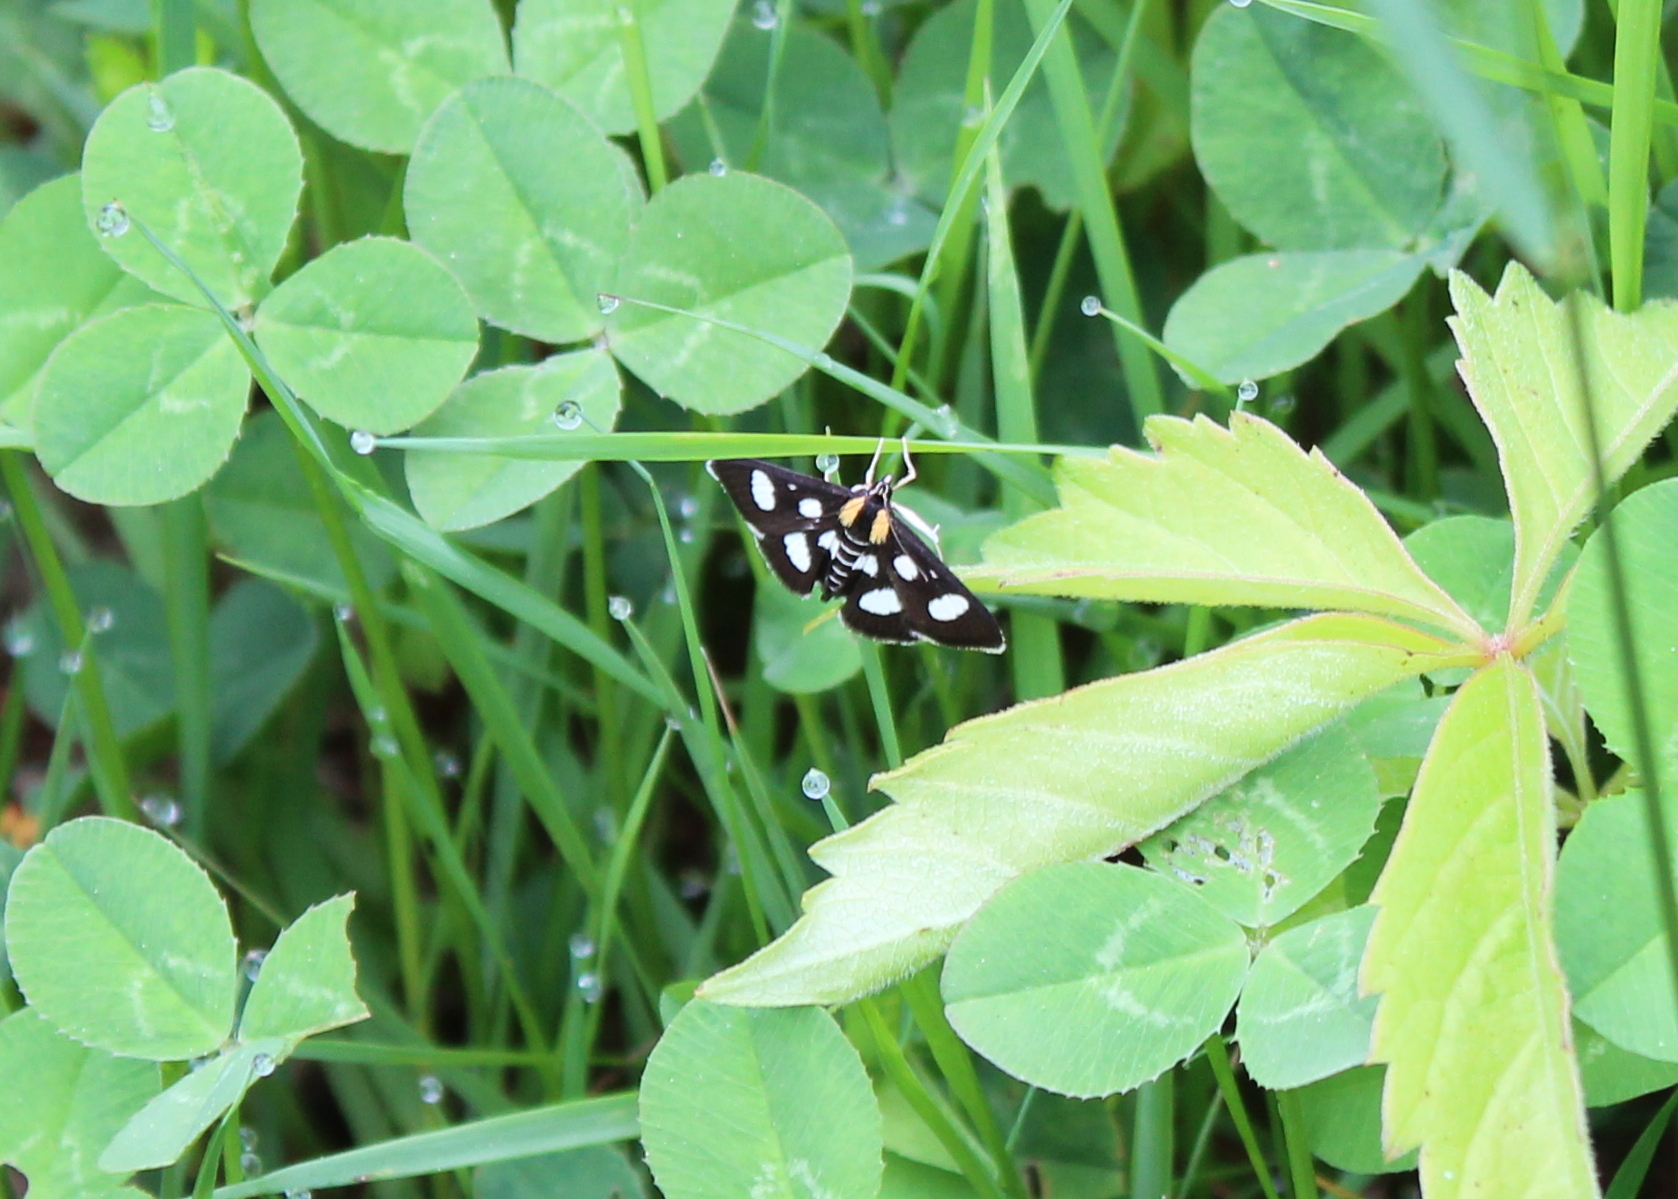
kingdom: Animalia
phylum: Arthropoda
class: Insecta
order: Lepidoptera
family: Crambidae
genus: Anania
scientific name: Anania funebris
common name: White-spotted sable moth
